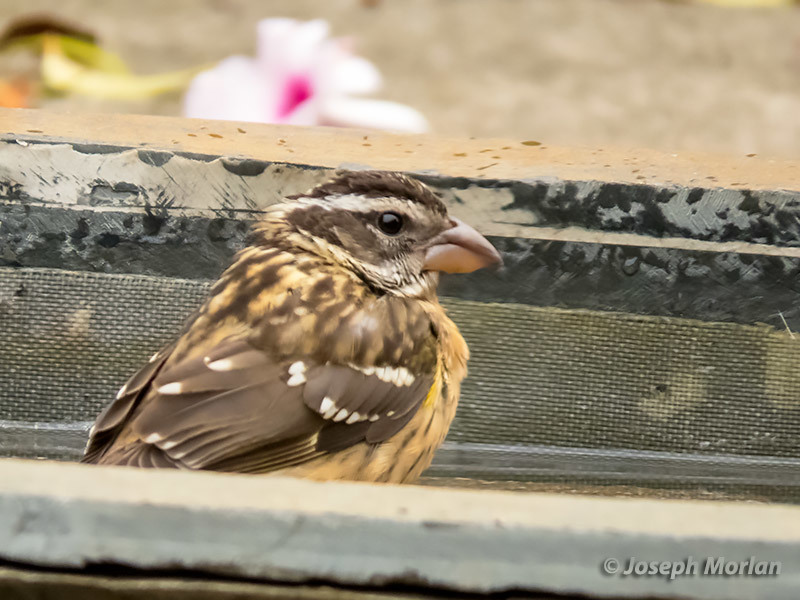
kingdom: Animalia
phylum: Chordata
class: Aves
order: Passeriformes
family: Cardinalidae
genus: Pheucticus
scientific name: Pheucticus melanocephalus
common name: Black-headed grosbeak
